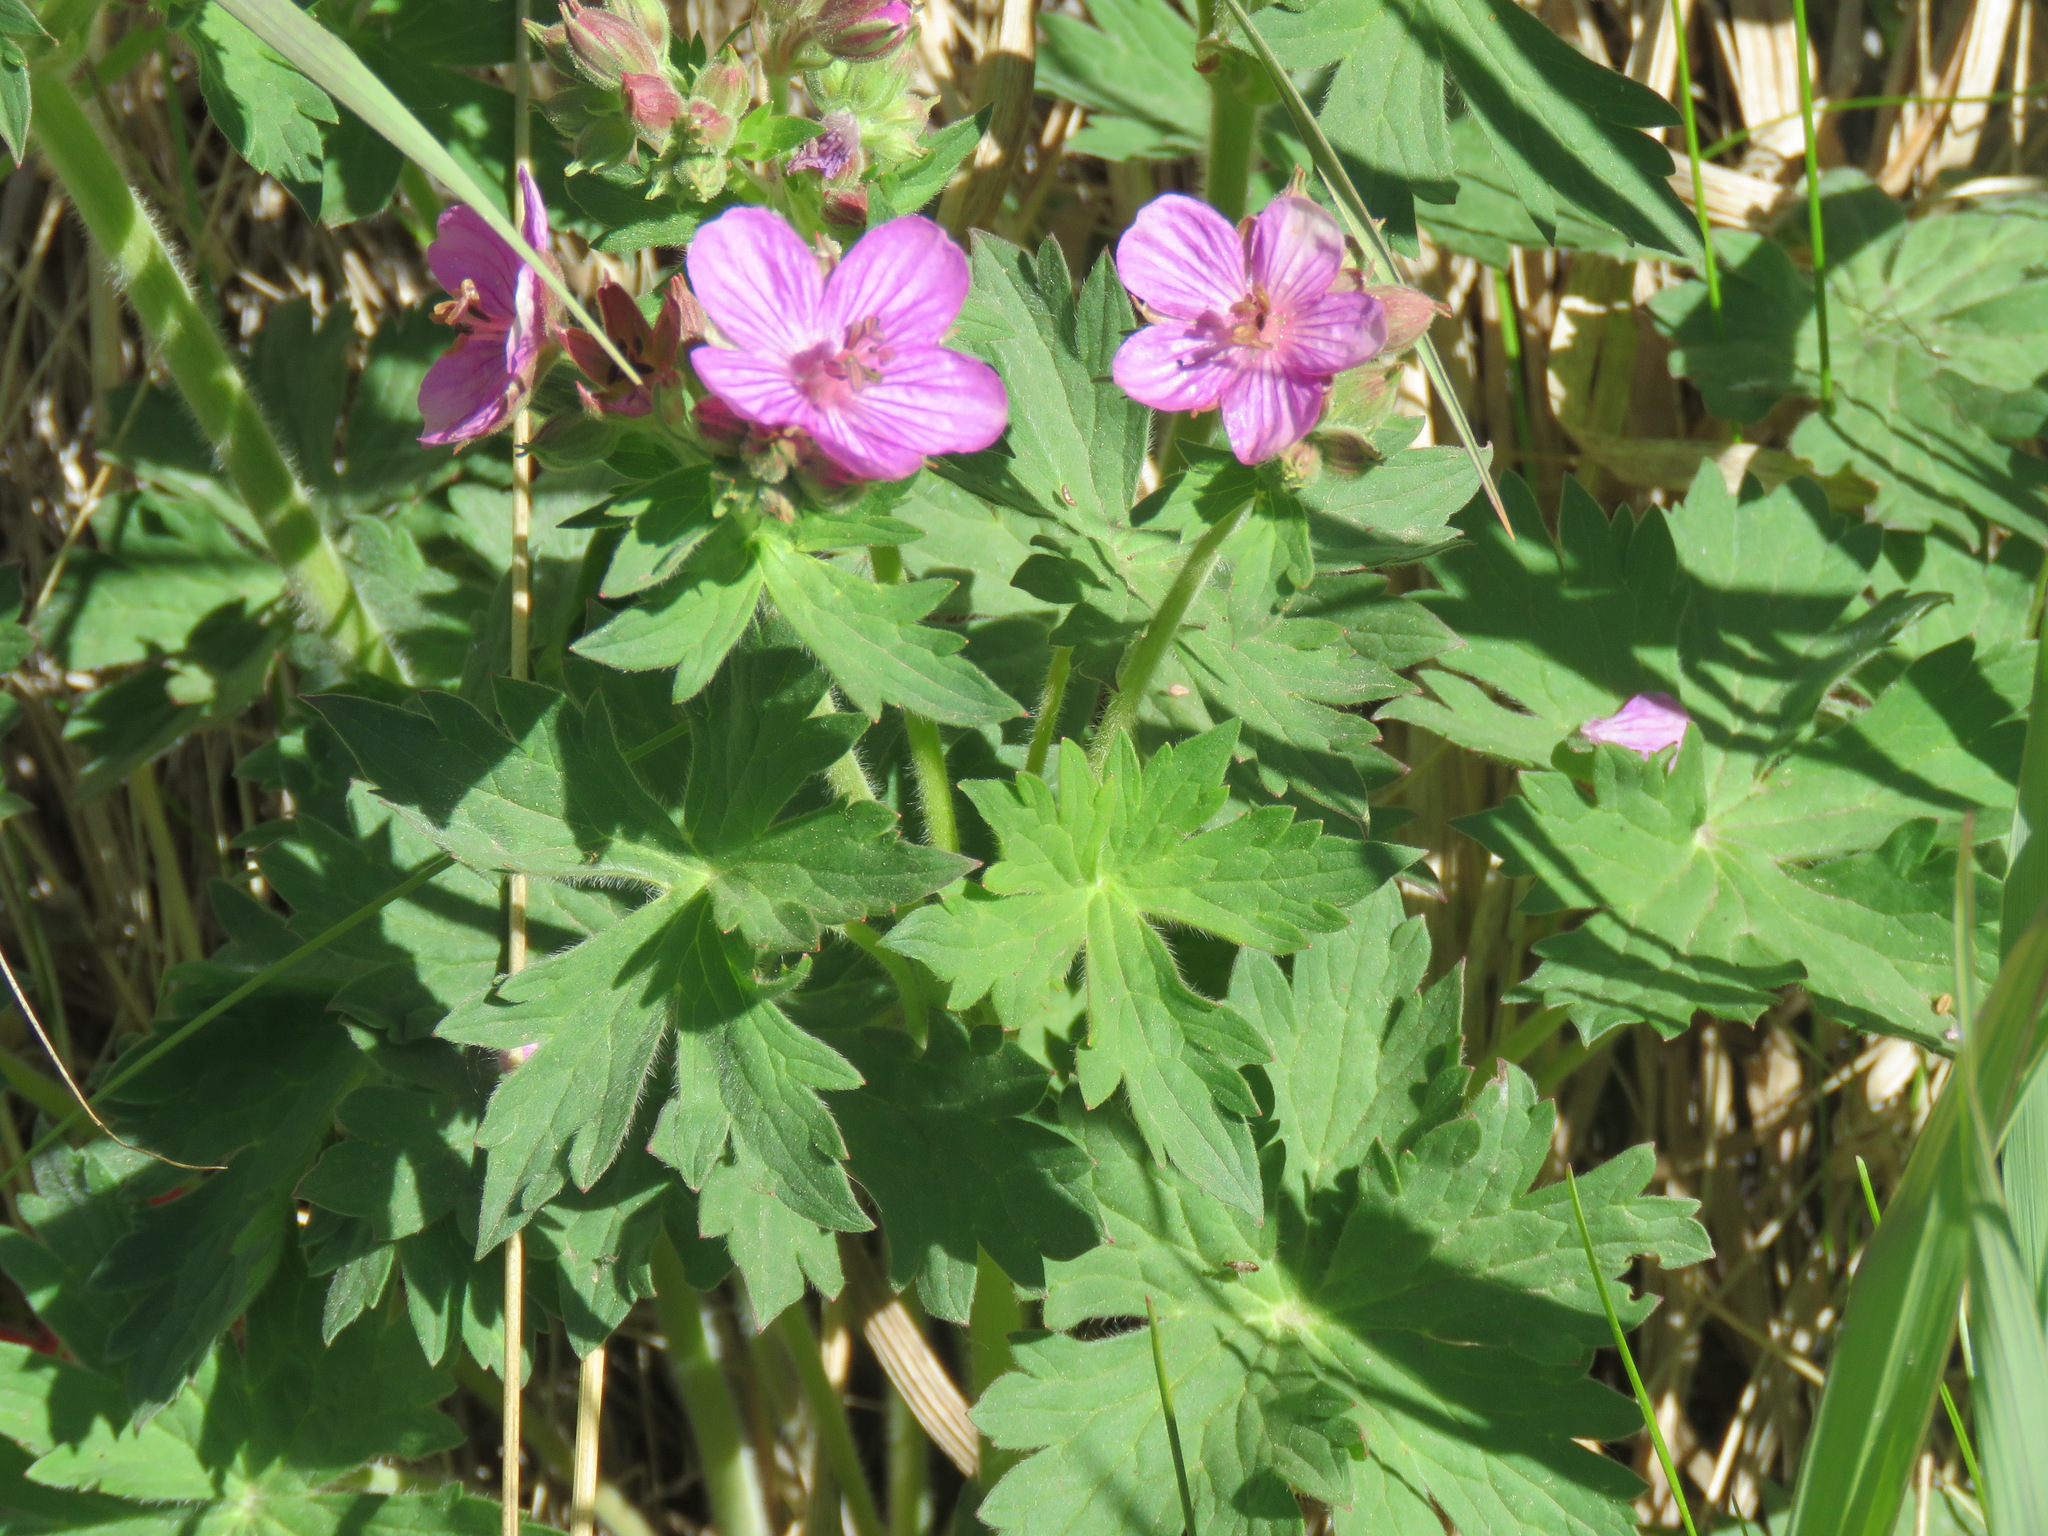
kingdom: Plantae
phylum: Tracheophyta
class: Magnoliopsida
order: Geraniales
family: Geraniaceae
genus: Geranium
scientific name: Geranium viscosissimum
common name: Purple geranium
